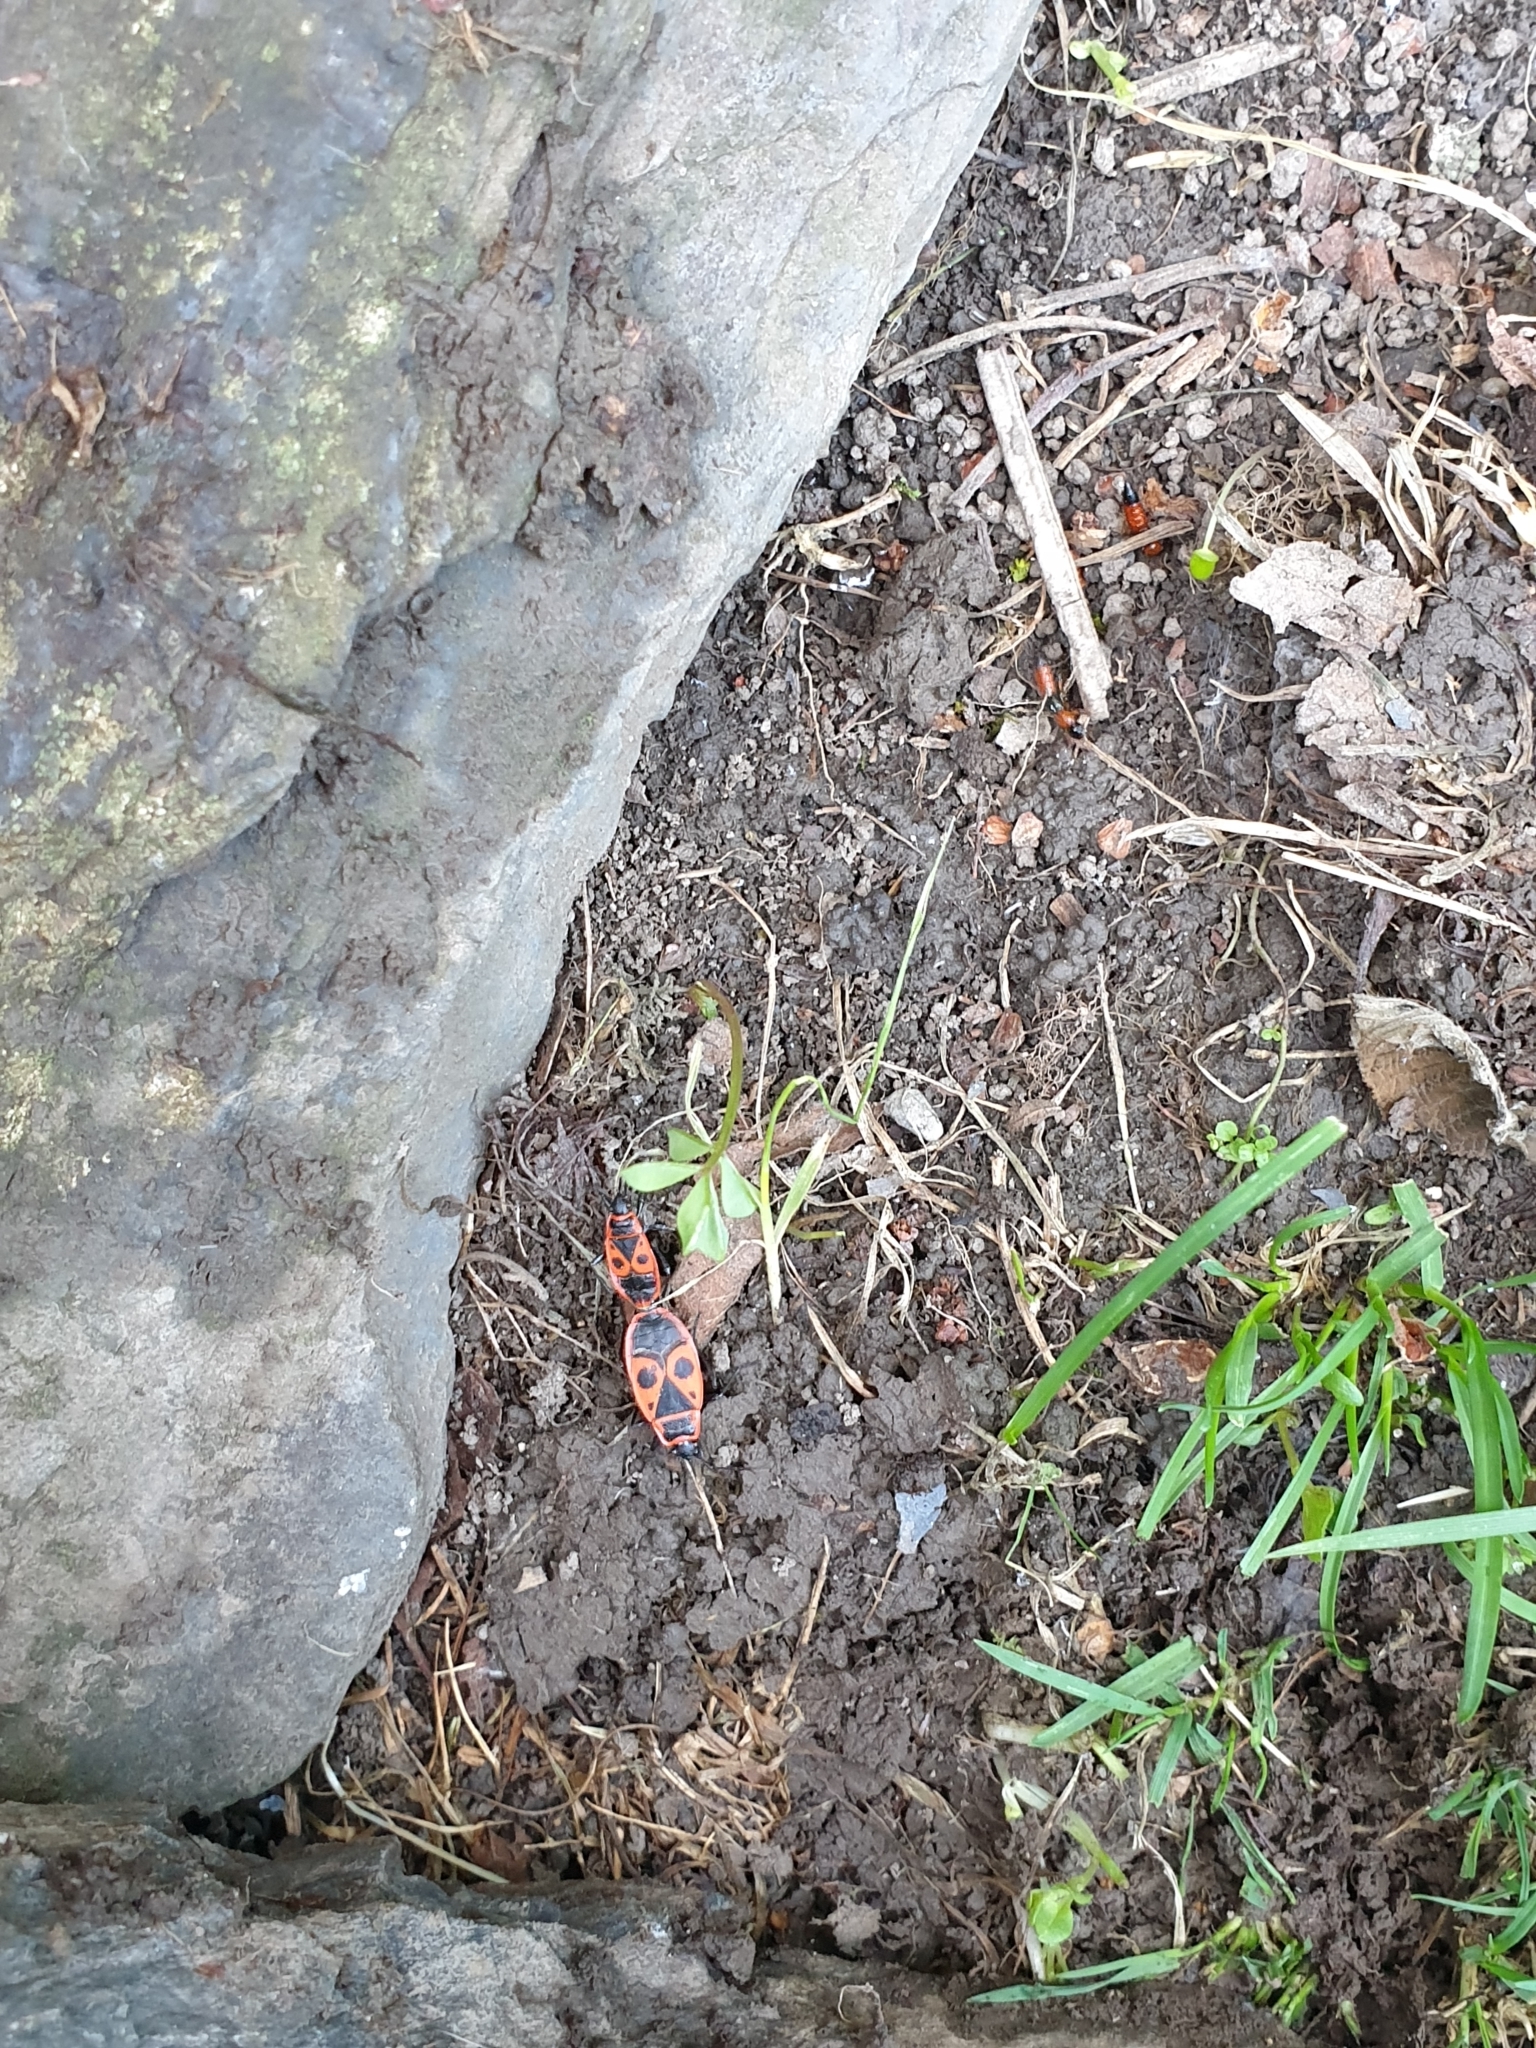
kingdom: Animalia
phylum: Arthropoda
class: Insecta
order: Hemiptera
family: Pyrrhocoridae
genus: Pyrrhocoris
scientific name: Pyrrhocoris apterus
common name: Firebug
